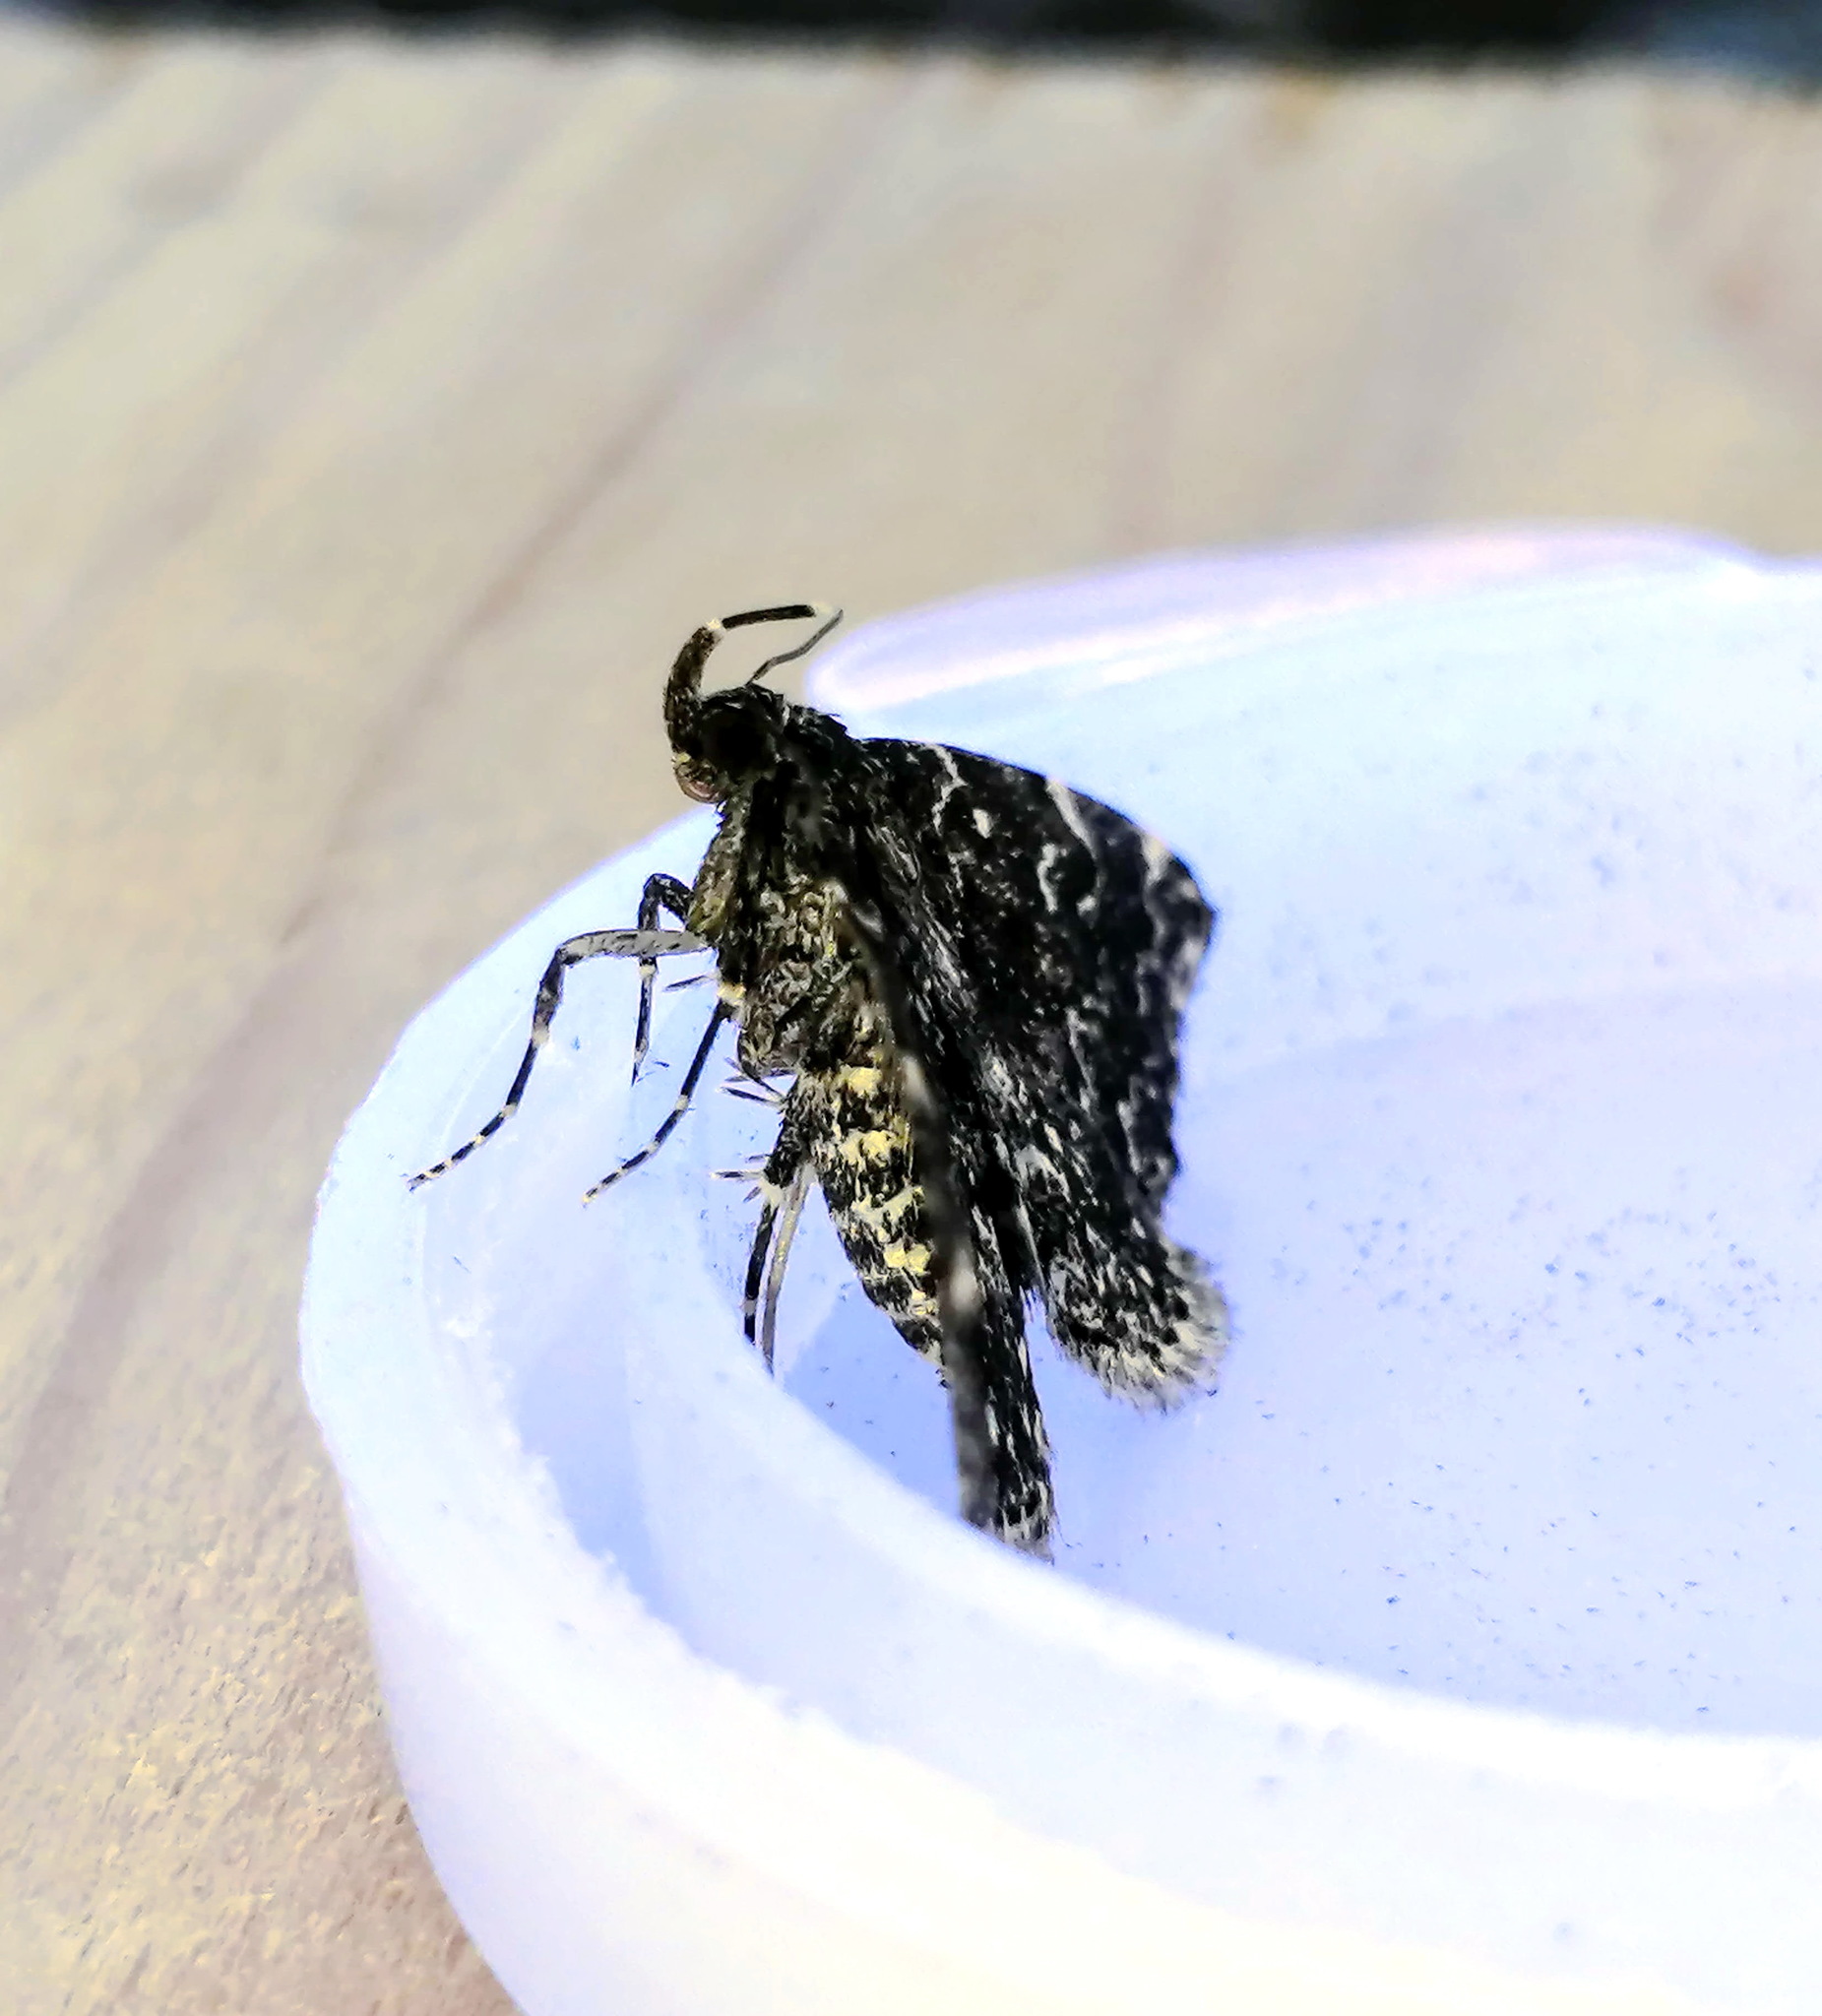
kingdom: Animalia
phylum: Arthropoda
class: Insecta
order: Lepidoptera
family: Erebidae
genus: Idia
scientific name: Idia scobialis
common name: Smoky idia moth
